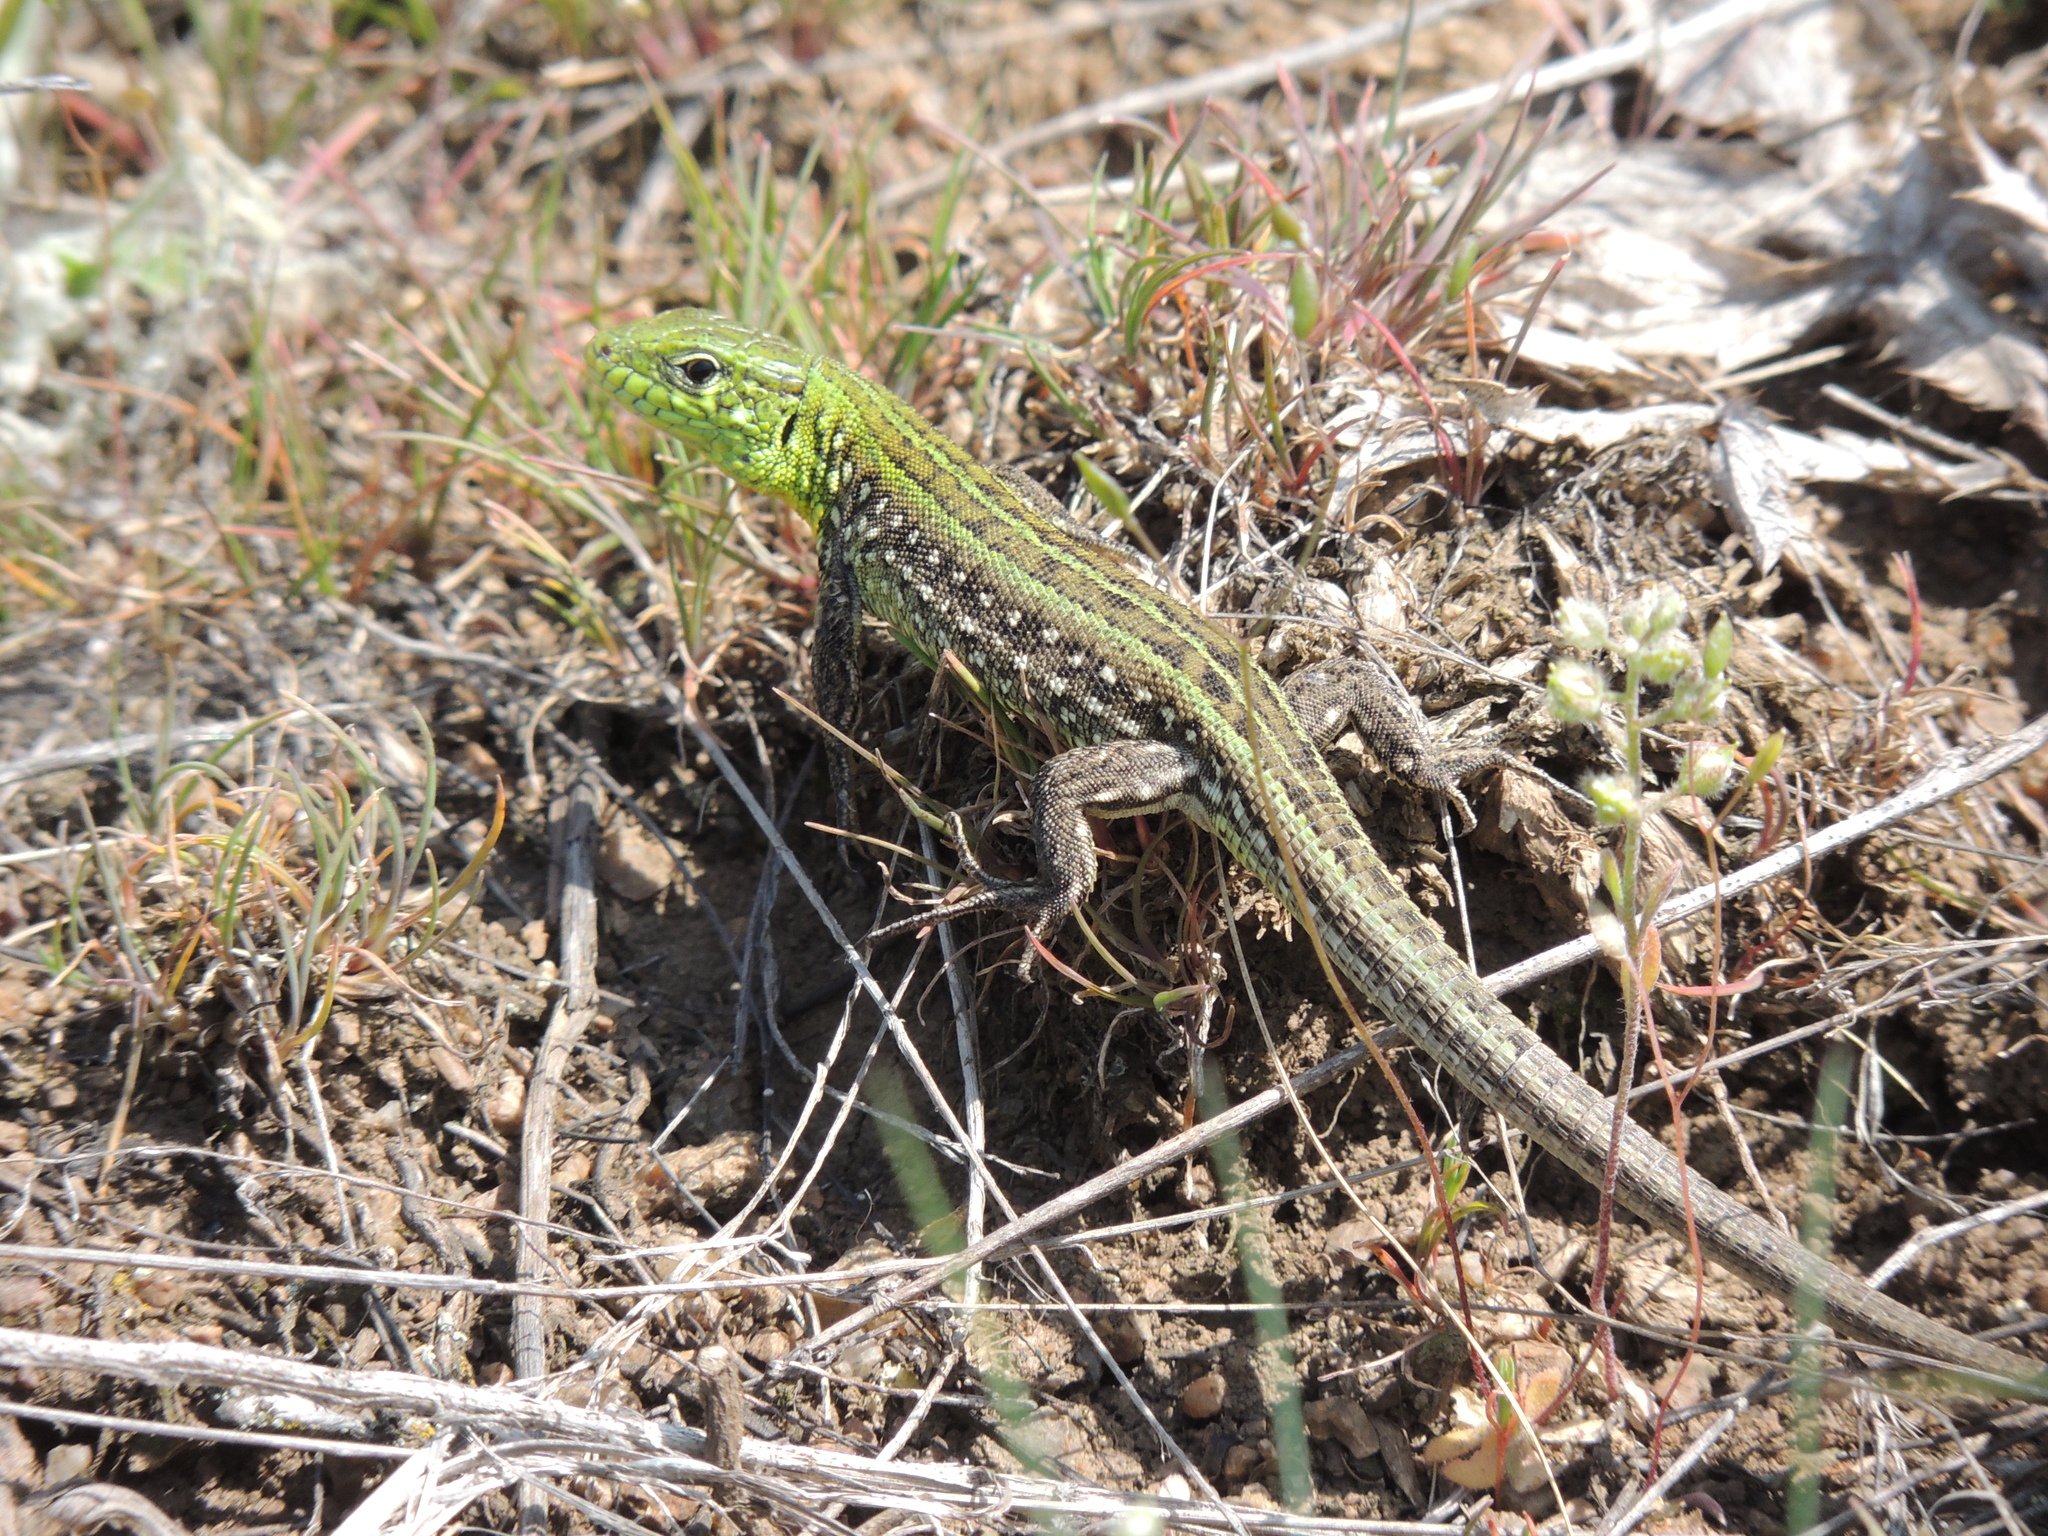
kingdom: Animalia
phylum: Chordata
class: Squamata
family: Lacertidae
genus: Lacerta
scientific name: Lacerta agilis
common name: Sand lizard
